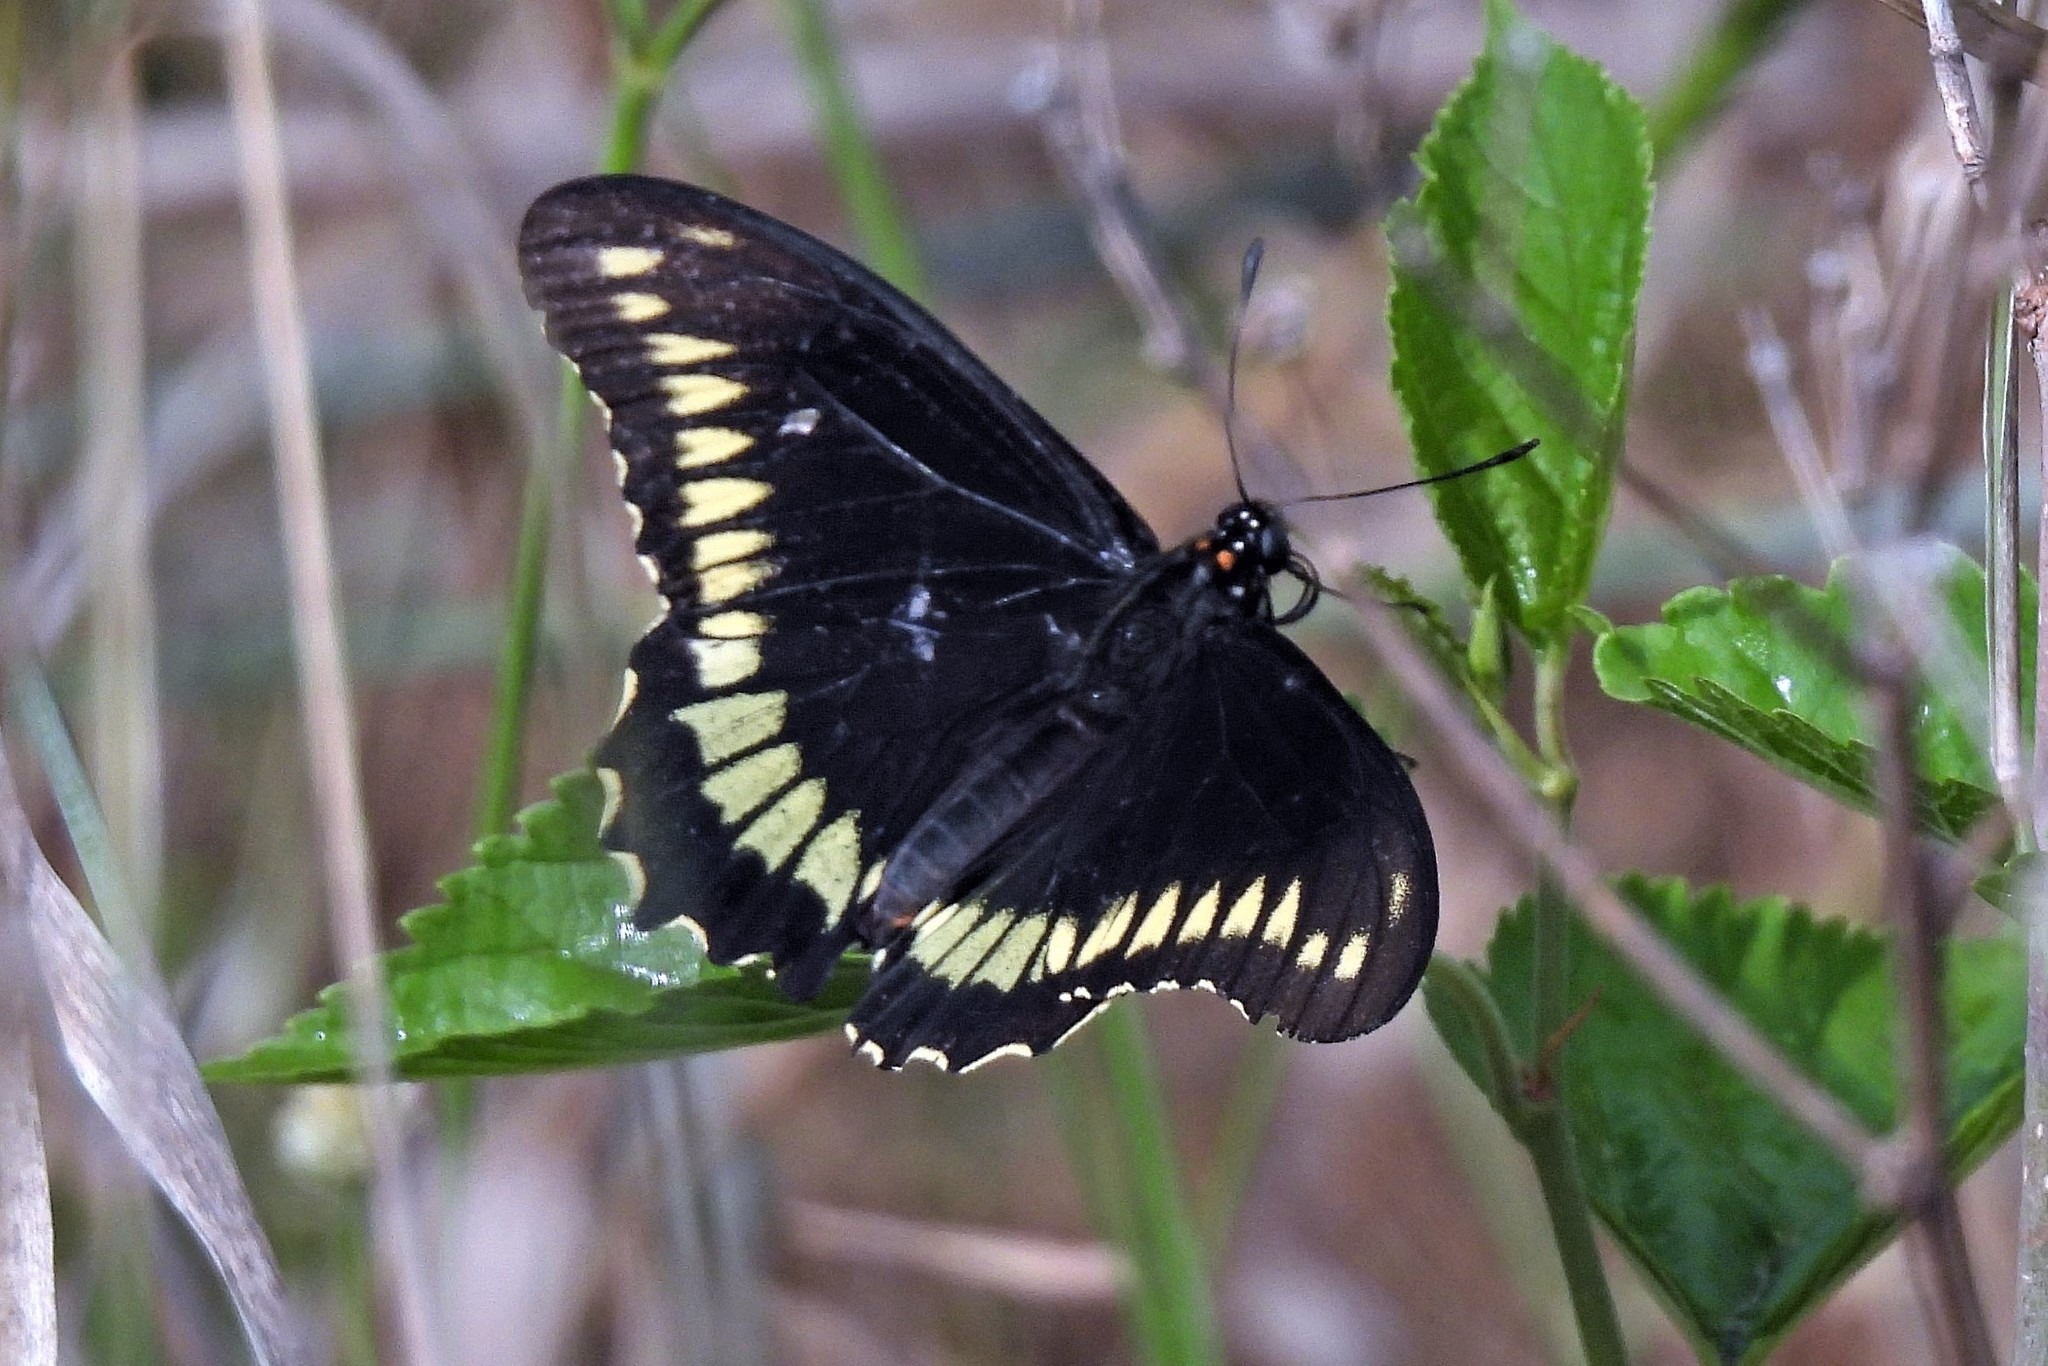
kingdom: Animalia
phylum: Arthropoda
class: Insecta
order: Lepidoptera
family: Papilionidae
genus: Battus
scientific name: Battus polydamas
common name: Polydamas swallowtail
